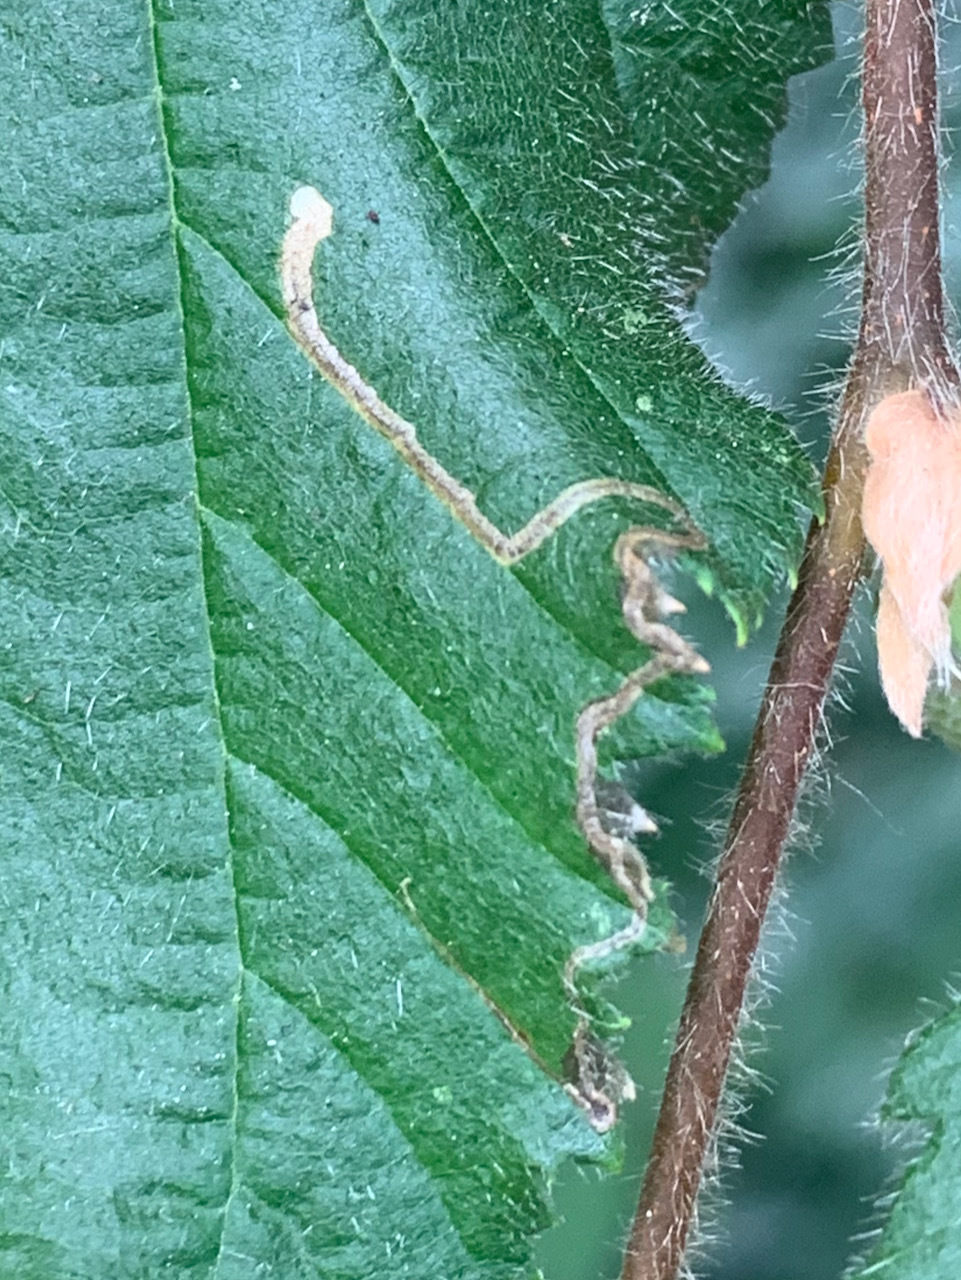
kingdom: Animalia
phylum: Arthropoda
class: Insecta
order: Lepidoptera
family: Nepticulidae
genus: Stigmella
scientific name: Stigmella microtheriella
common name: Nut-tree pigmy
